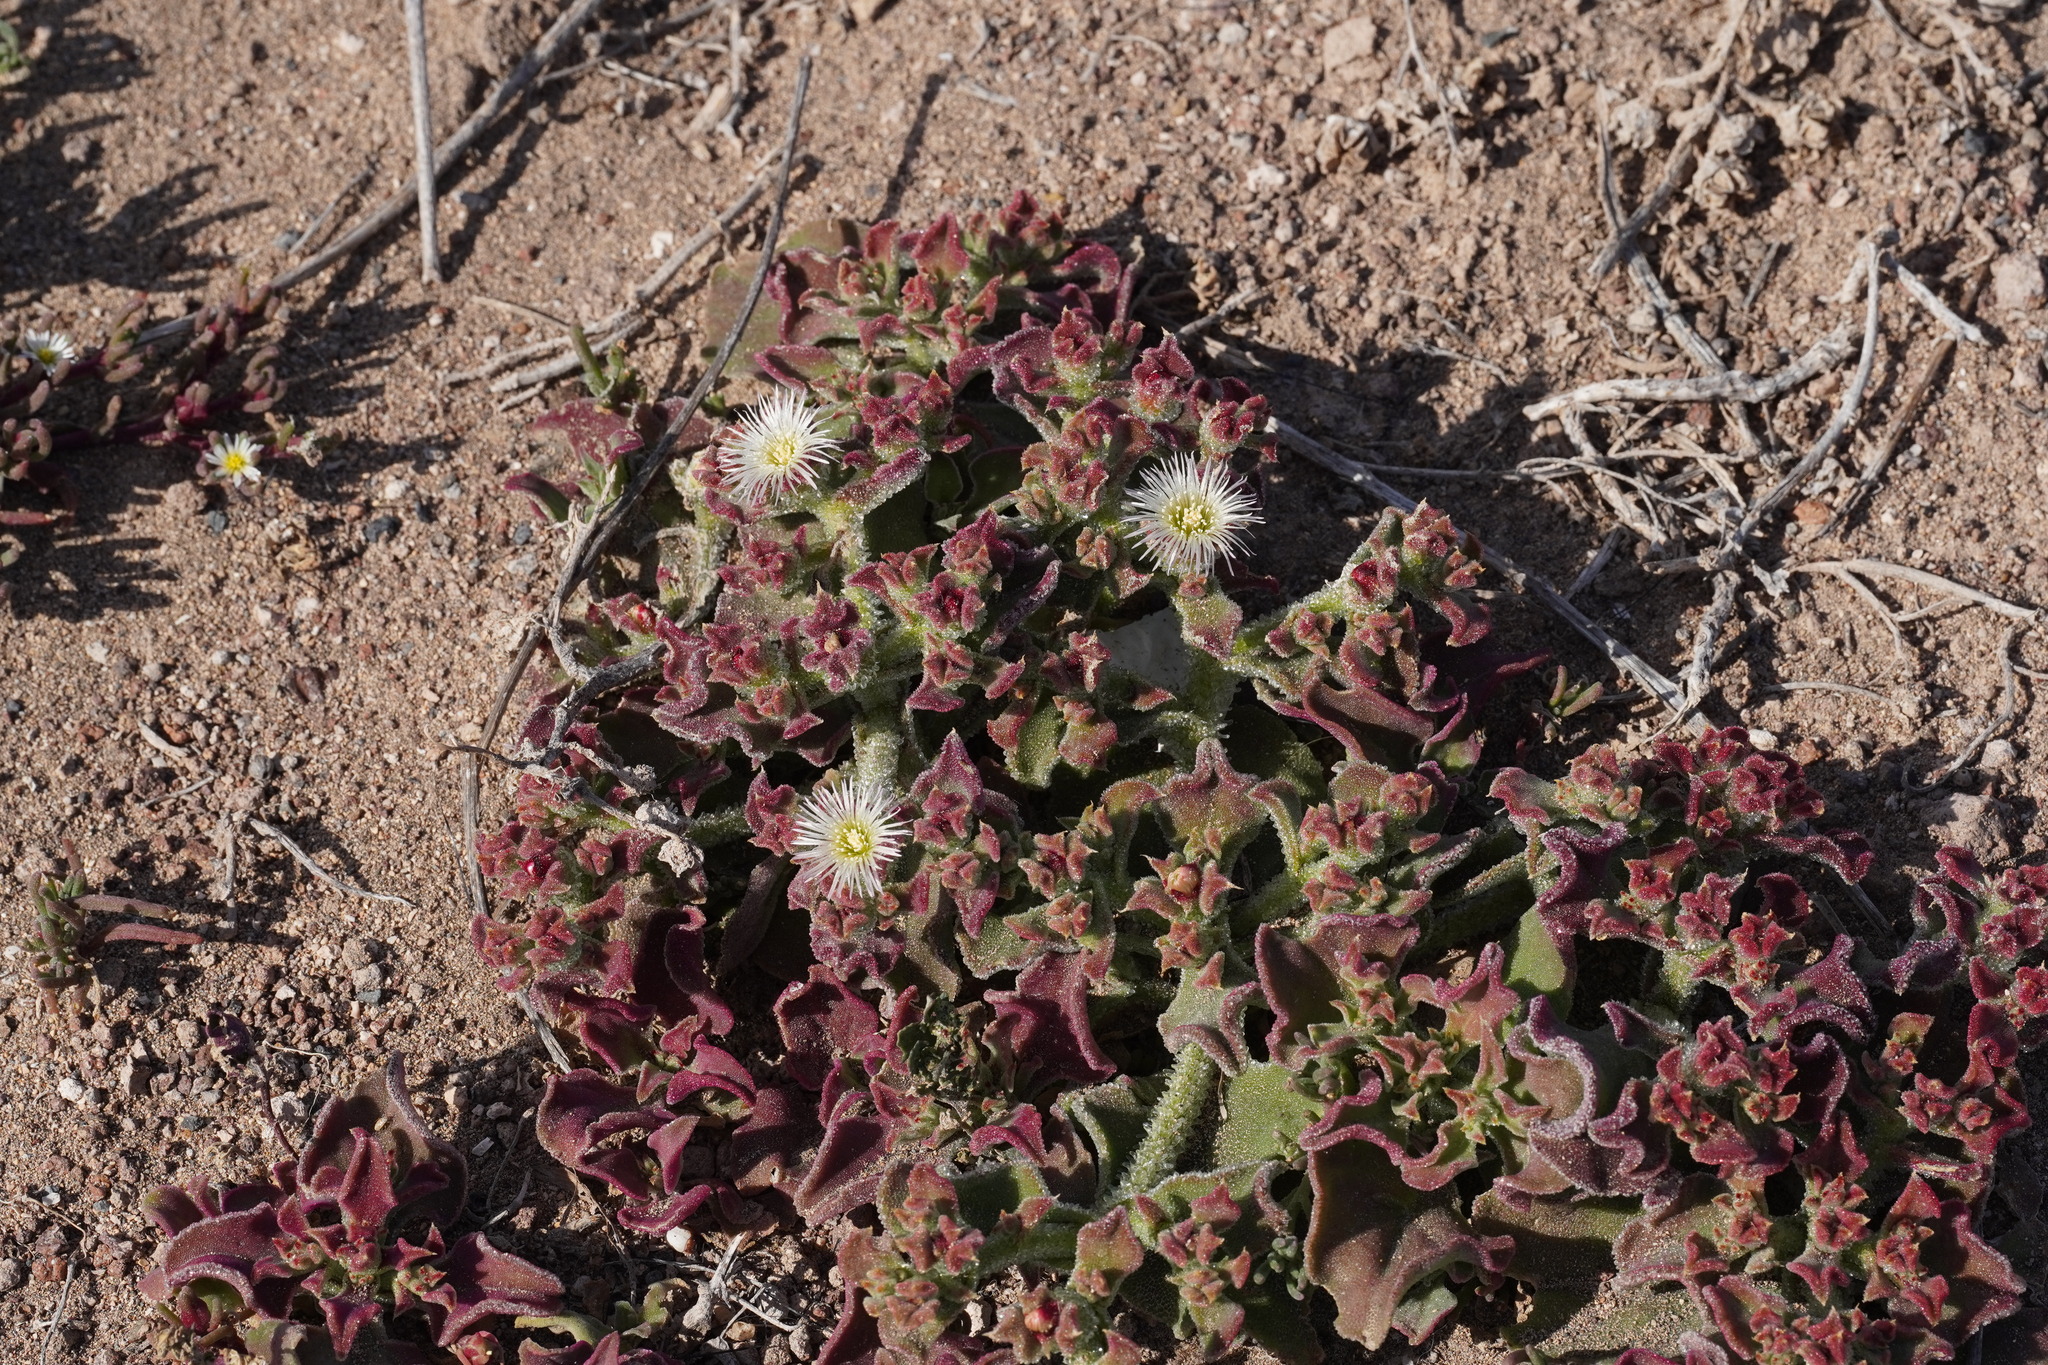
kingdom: Plantae
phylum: Tracheophyta
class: Magnoliopsida
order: Caryophyllales
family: Aizoaceae
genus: Mesembryanthemum
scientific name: Mesembryanthemum crystallinum
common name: Common iceplant
